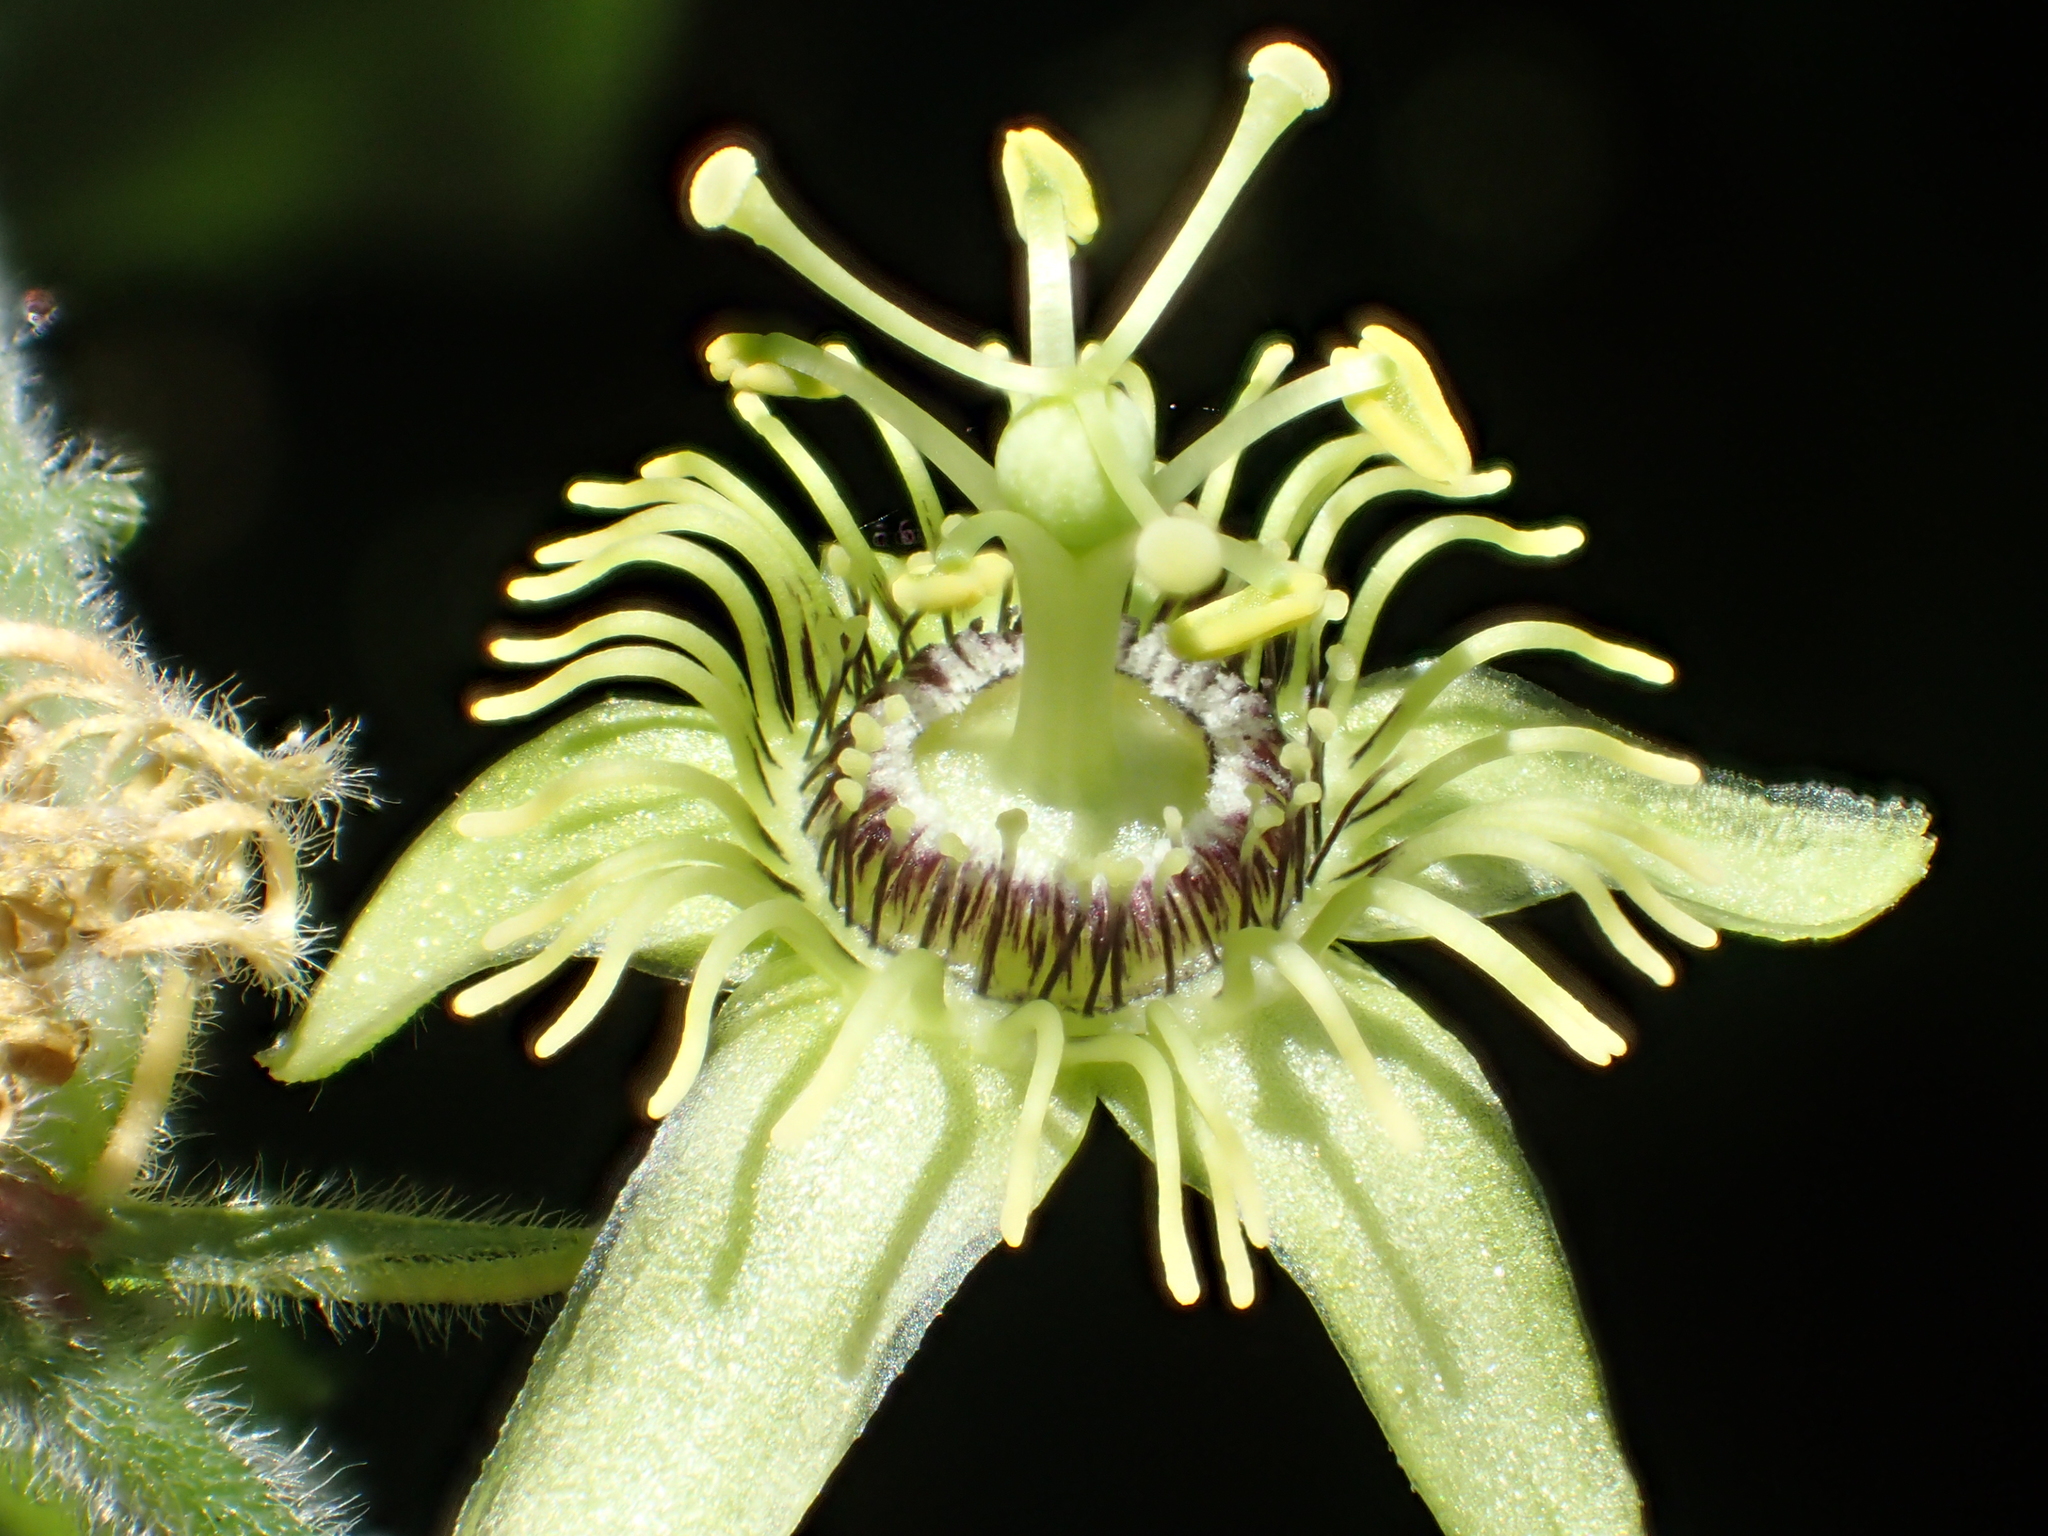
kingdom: Plantae
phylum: Tracheophyta
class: Magnoliopsida
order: Malpighiales
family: Passifloraceae
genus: Passiflora
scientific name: Passiflora suberosa
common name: Wild passionfruit
